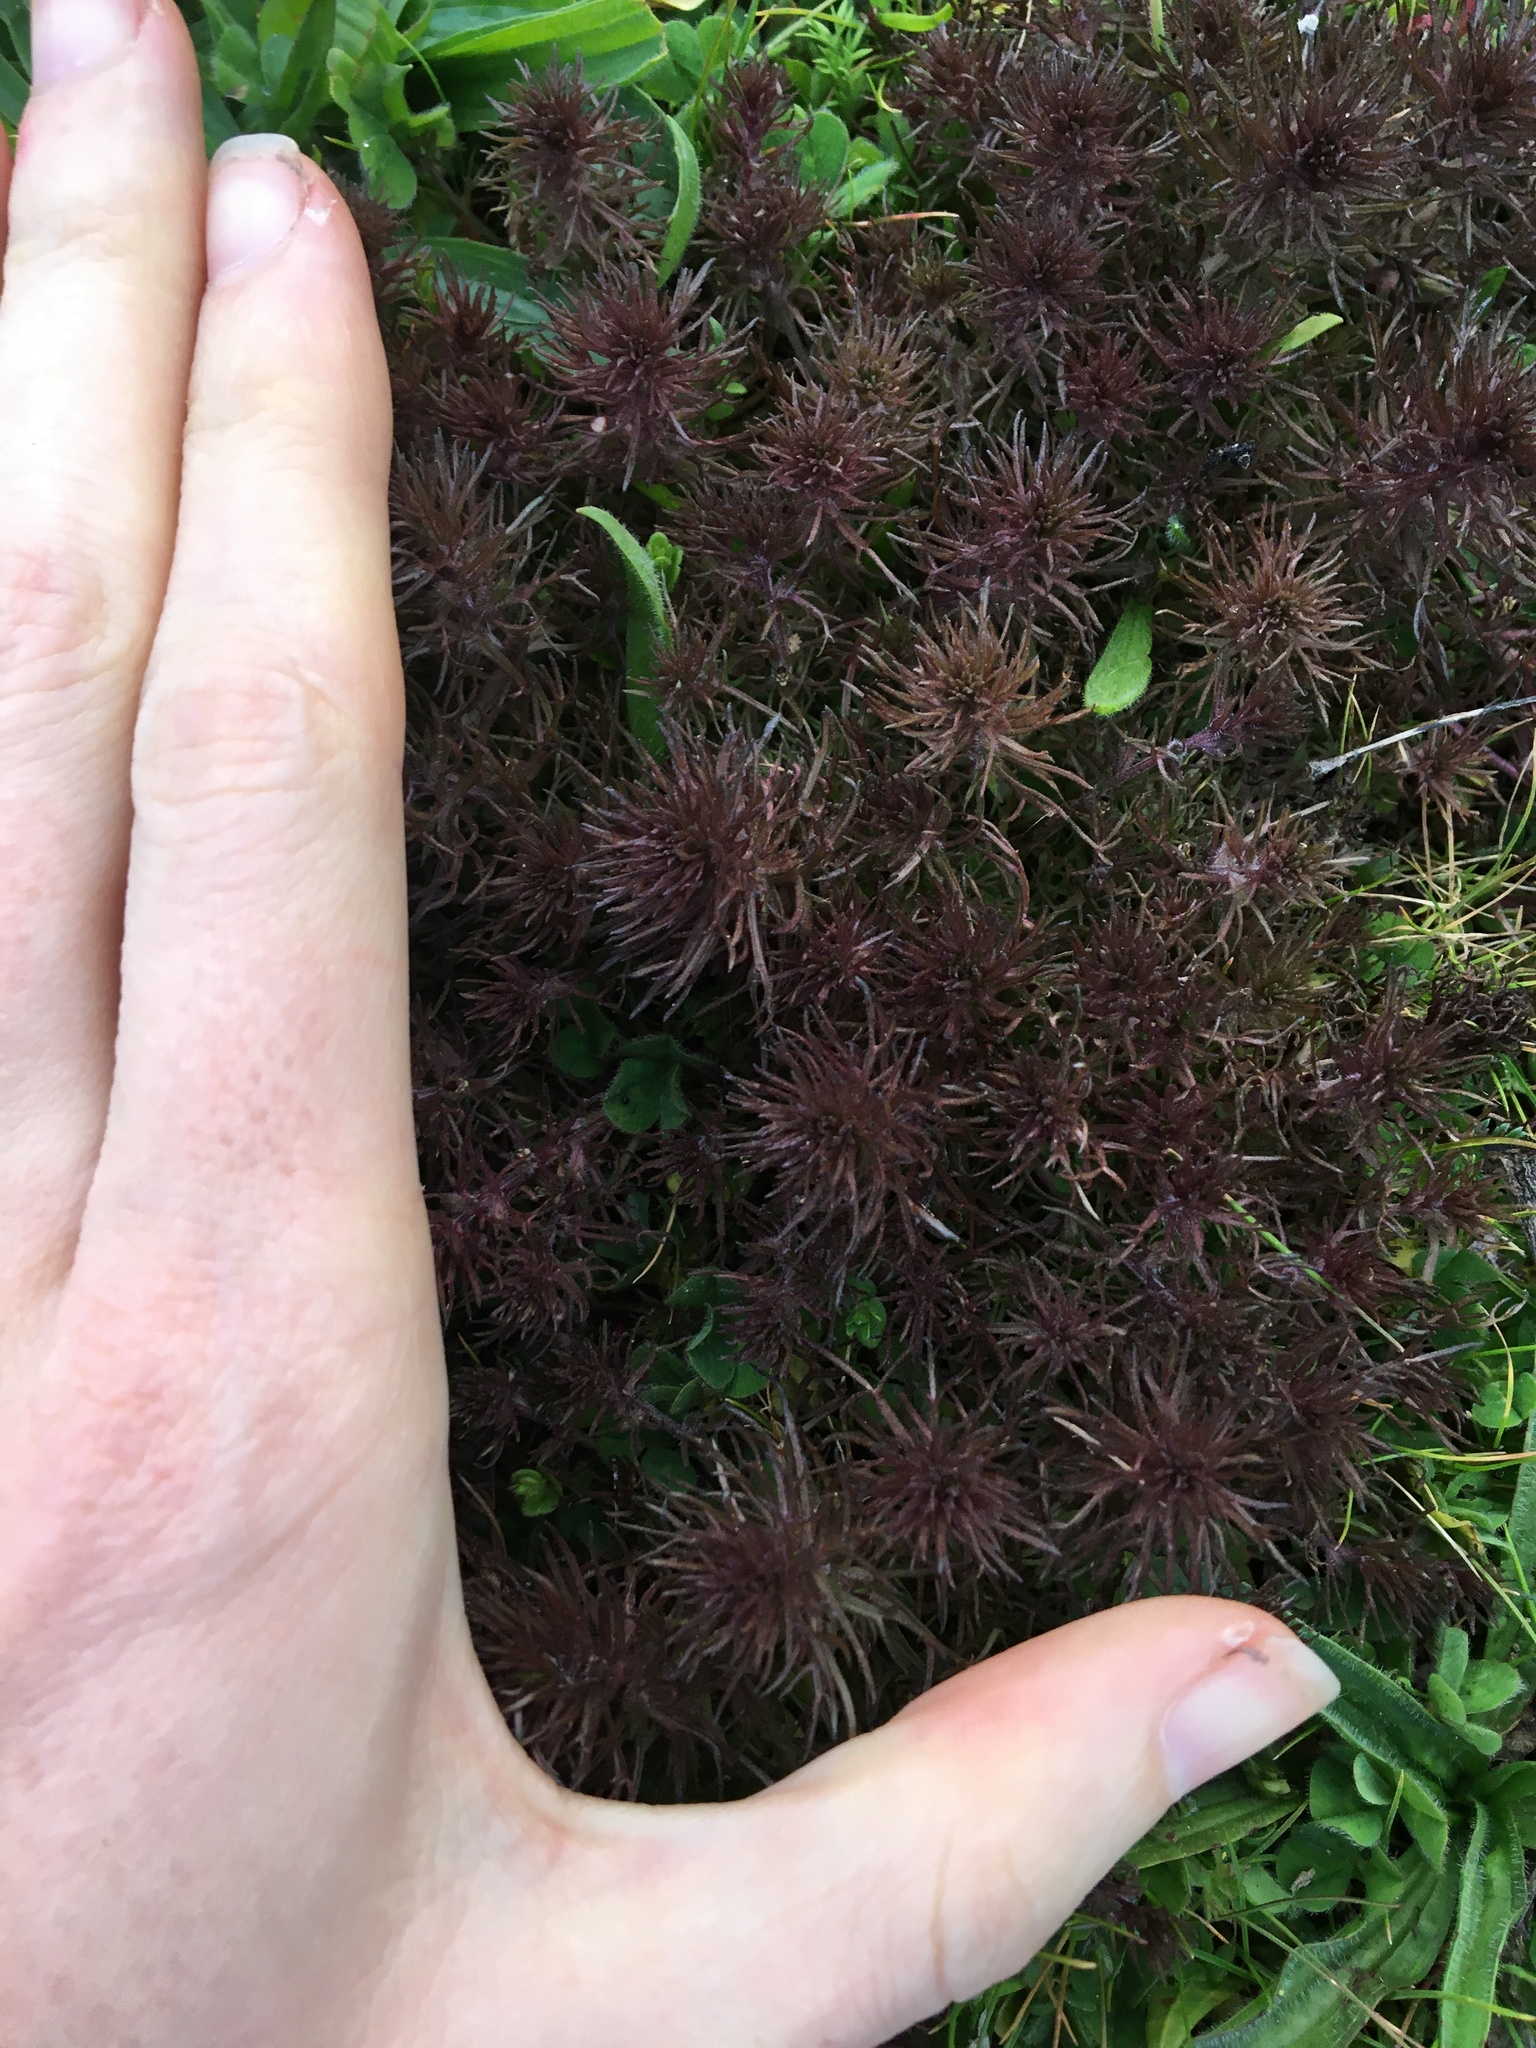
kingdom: Plantae
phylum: Tracheophyta
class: Magnoliopsida
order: Lamiales
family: Orobanchaceae
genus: Triphysaria
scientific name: Triphysaria pusilla
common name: Dwarf false owl-clover
